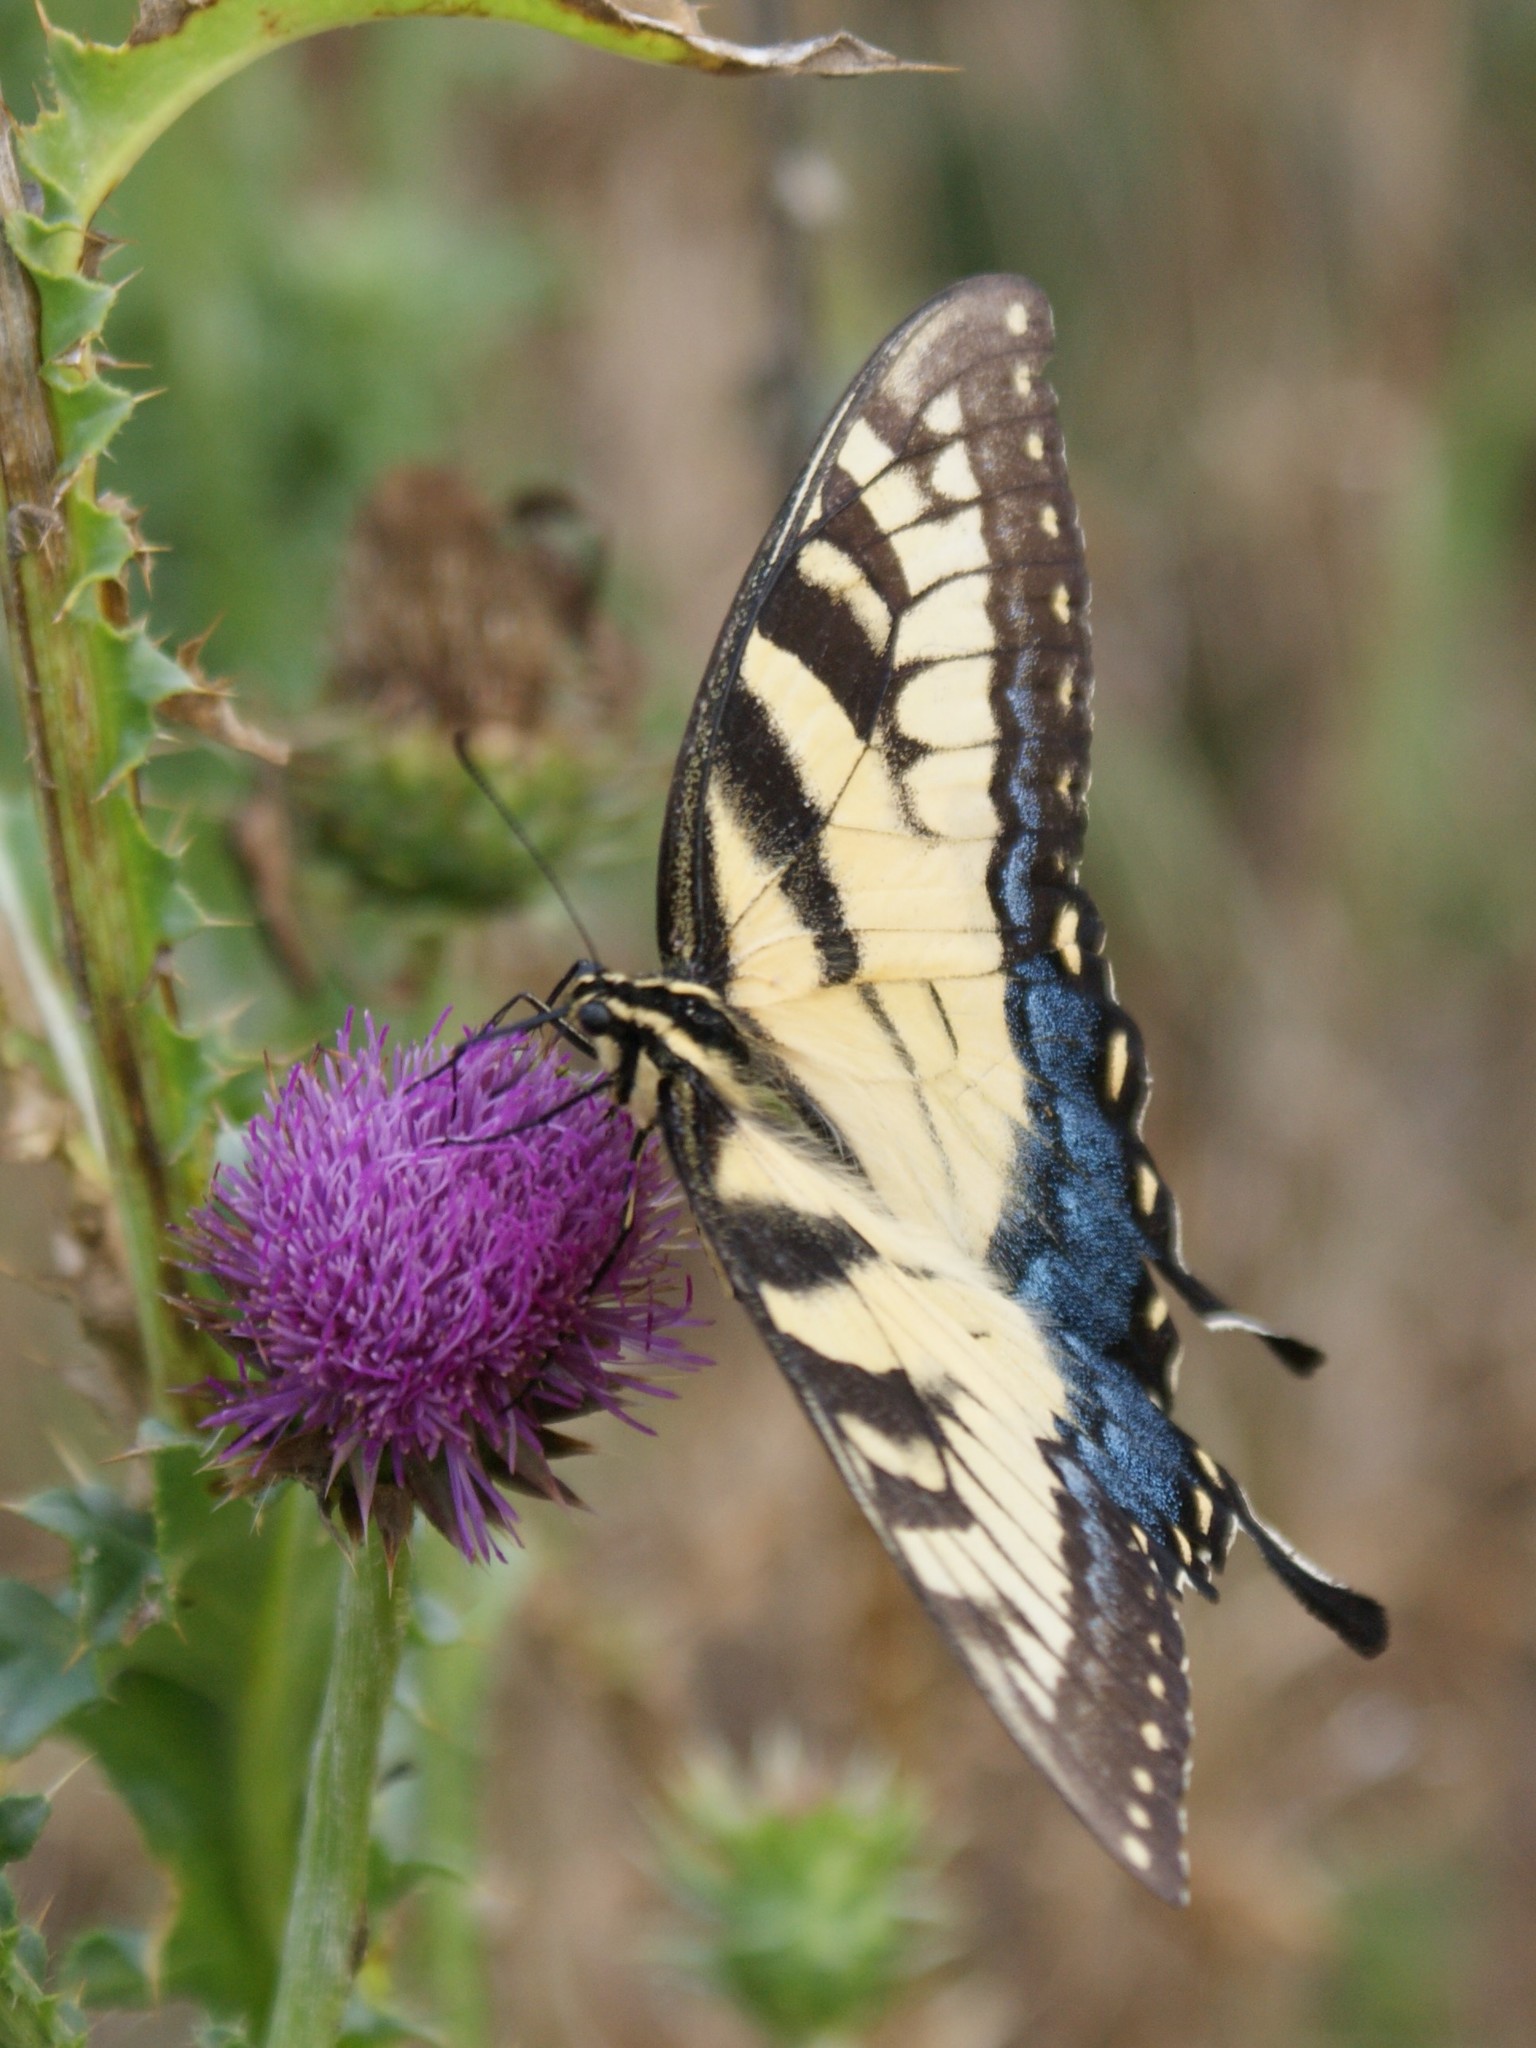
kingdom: Animalia
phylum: Arthropoda
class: Insecta
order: Lepidoptera
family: Papilionidae
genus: Papilio
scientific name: Papilio glaucus
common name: Tiger swallowtail
